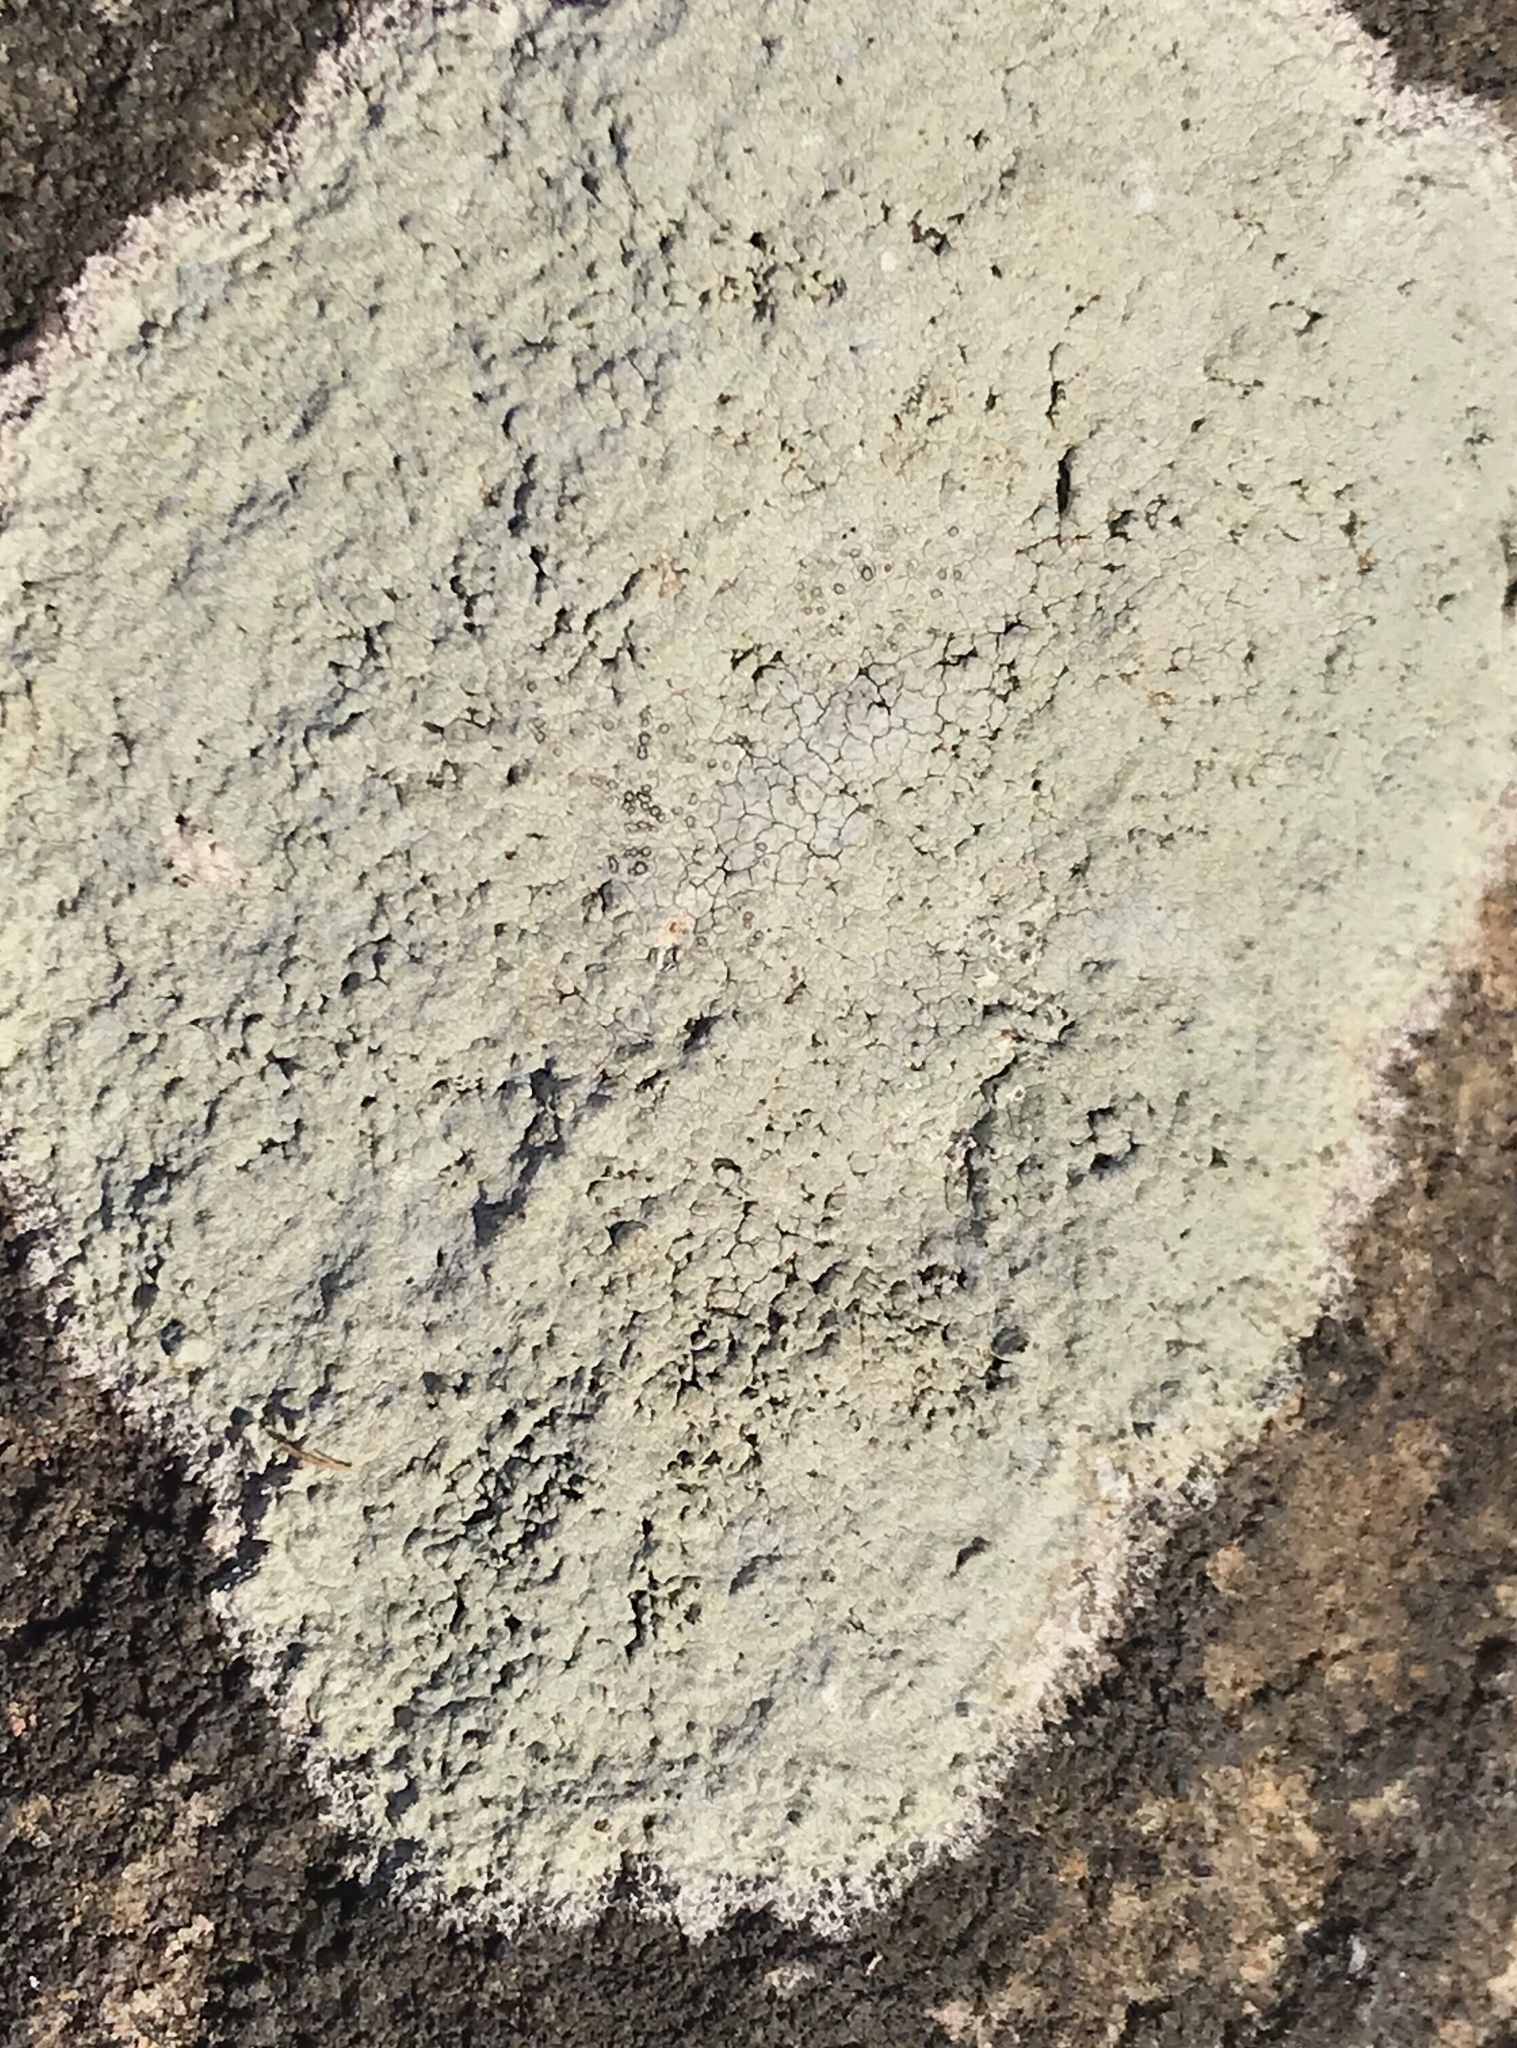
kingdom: Fungi
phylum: Ascomycota
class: Lecanoromycetes
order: Lecideales
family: Lecideaceae
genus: Porpidia
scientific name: Porpidia albocaerulescens
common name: Smokey-eyed boulder lichen
